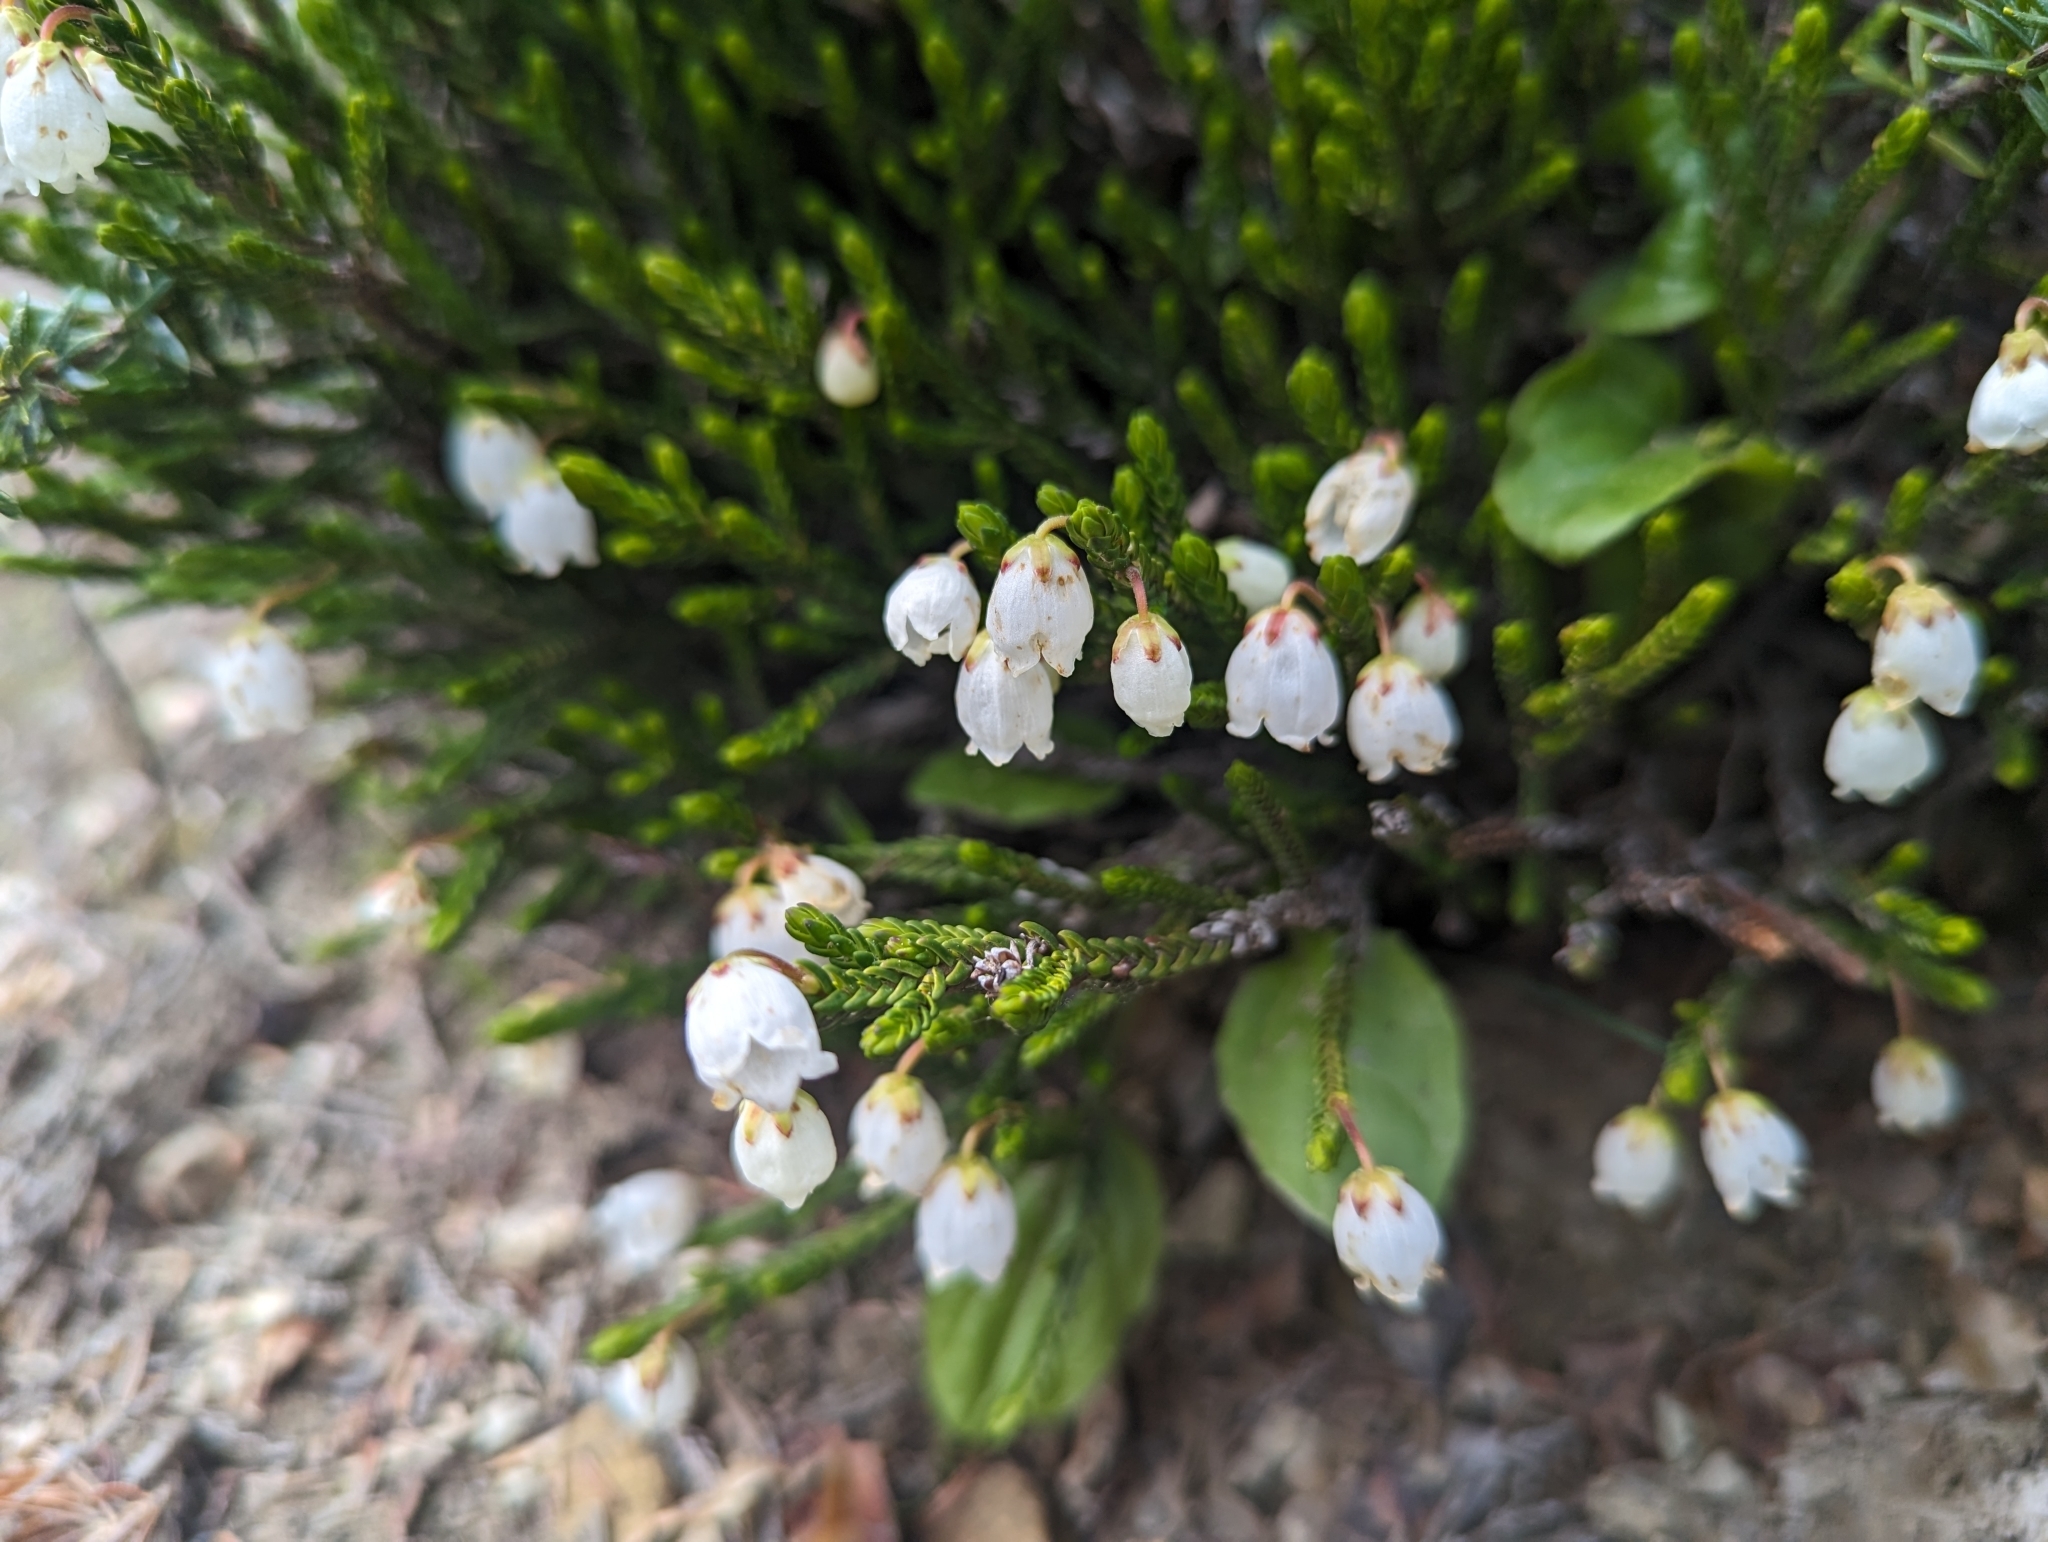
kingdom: Plantae
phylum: Tracheophyta
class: Magnoliopsida
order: Ericales
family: Ericaceae
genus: Cassiope
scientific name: Cassiope mertensiana
